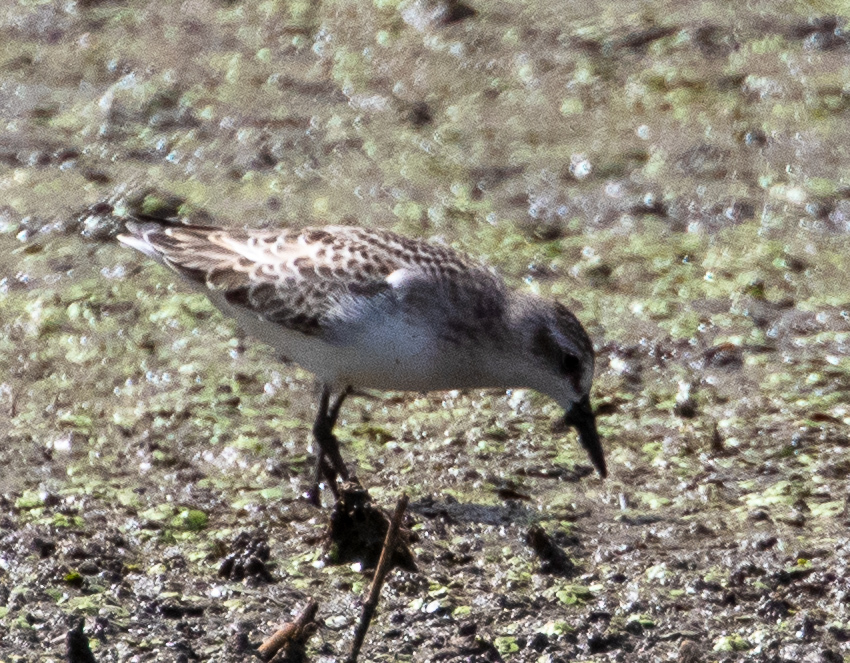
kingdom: Animalia
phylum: Chordata
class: Aves
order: Charadriiformes
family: Scolopacidae
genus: Calidris
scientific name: Calidris pusilla
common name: Semipalmated sandpiper
